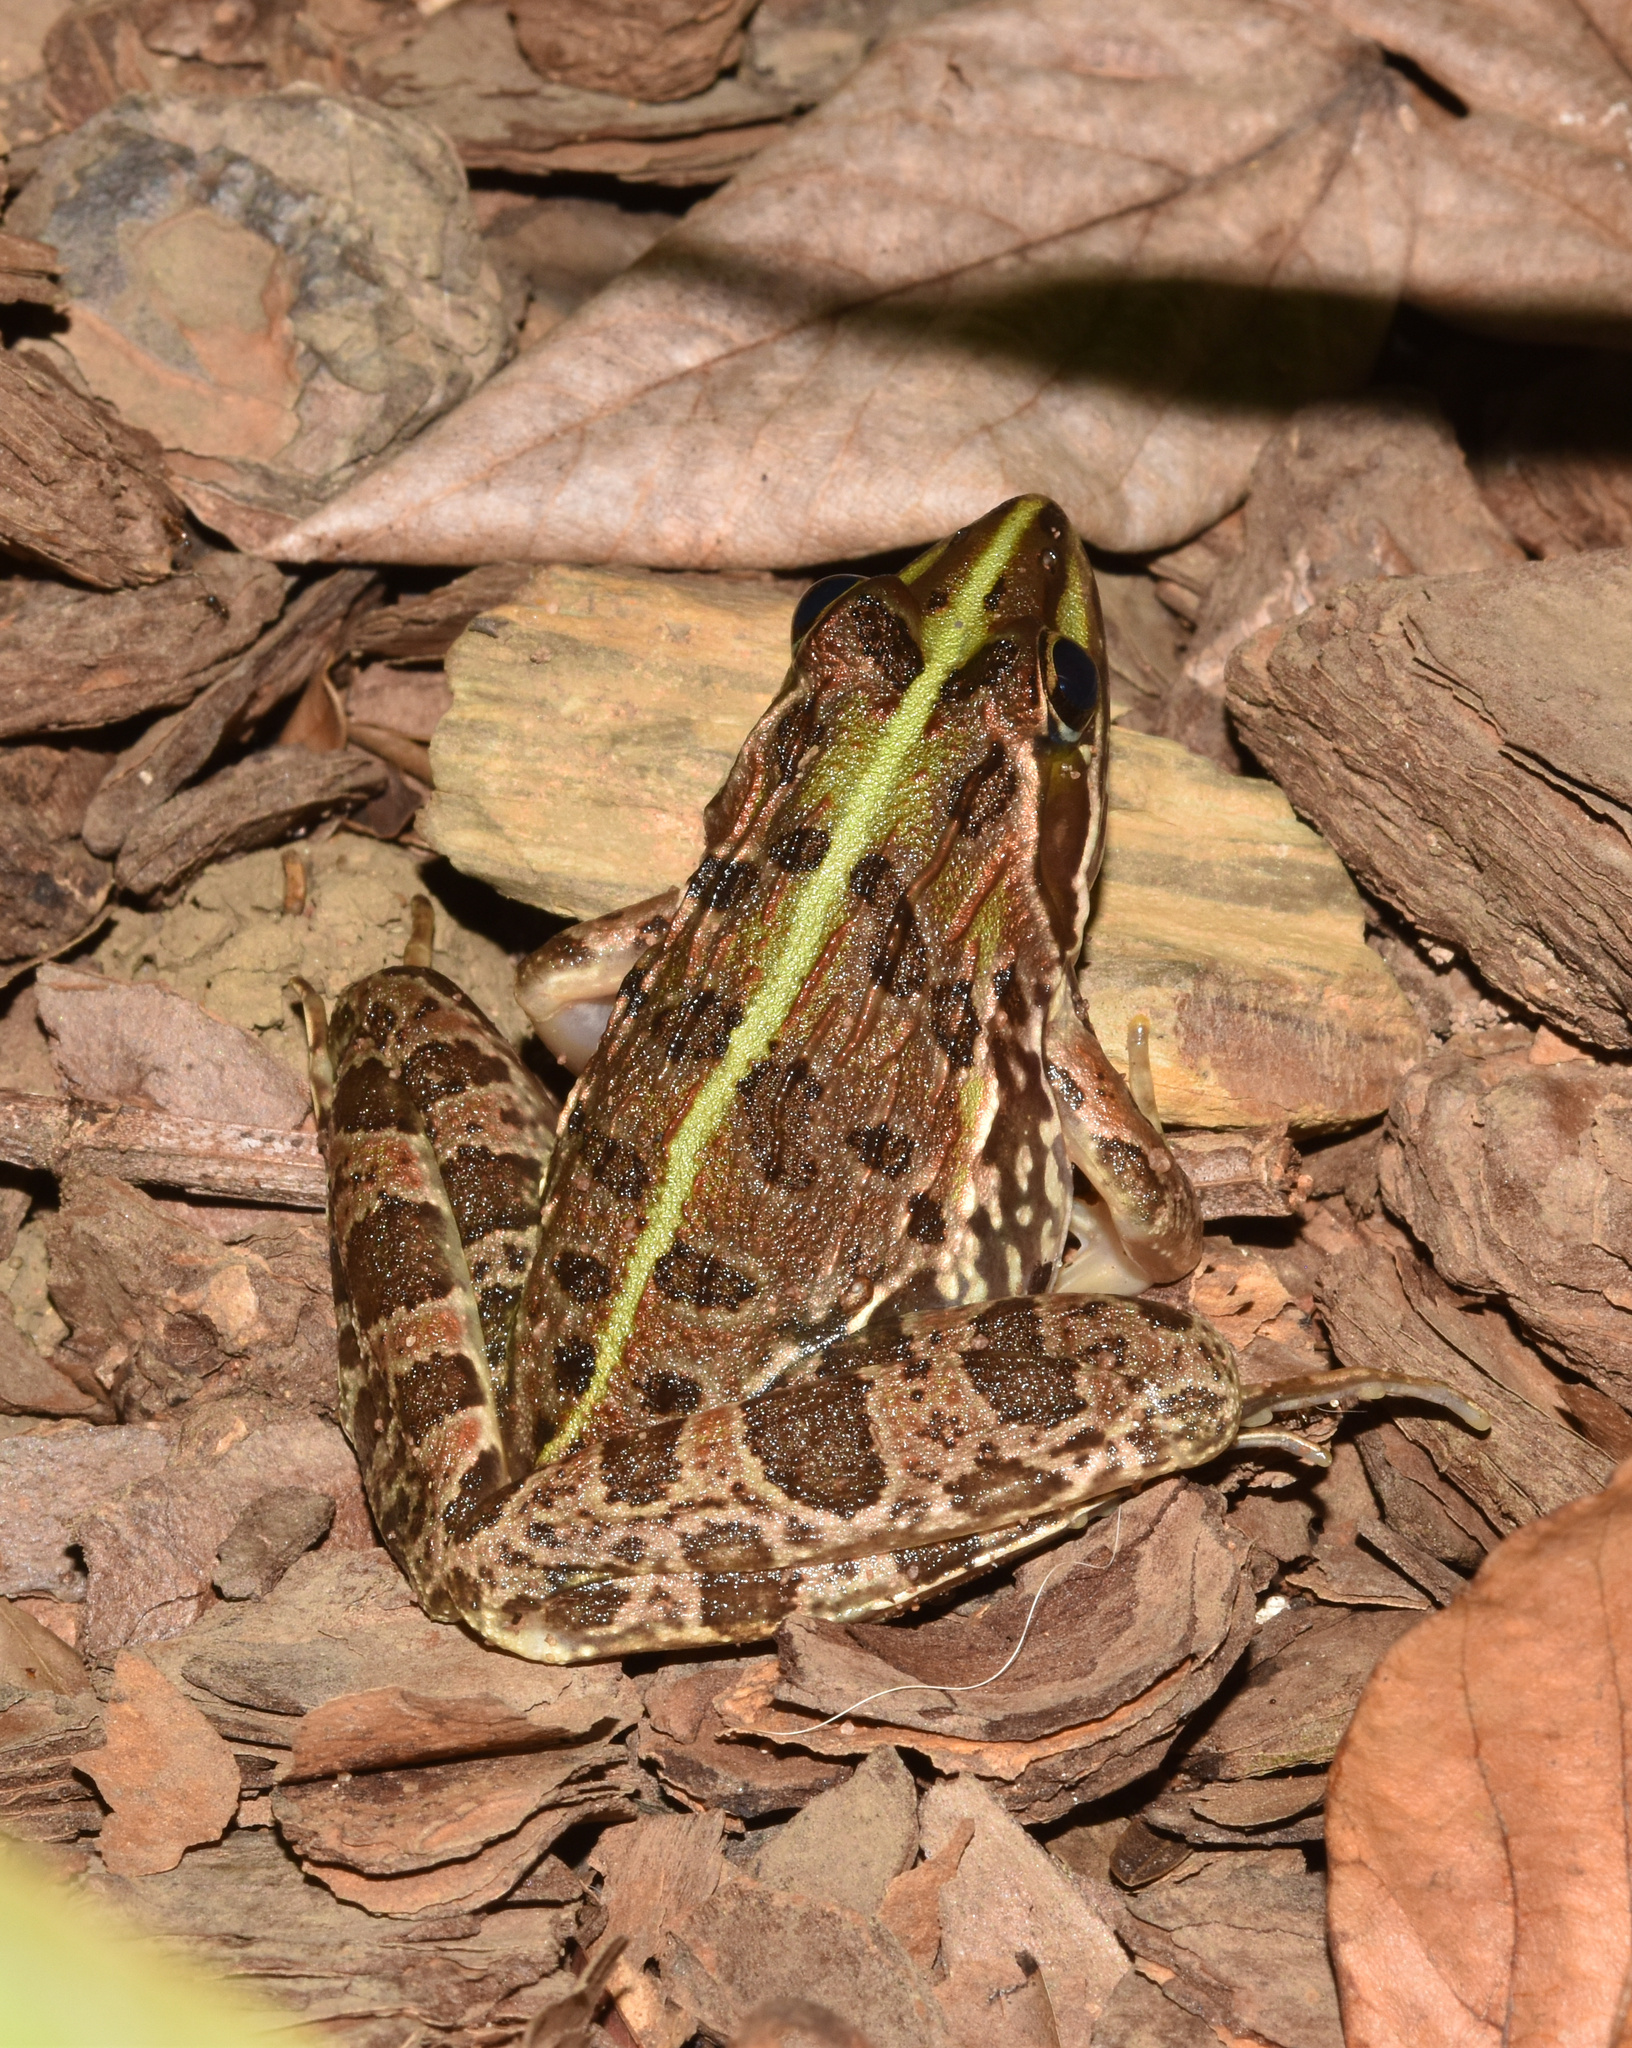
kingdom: Animalia
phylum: Chordata
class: Amphibia
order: Anura
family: Pyxicephalidae
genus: Amietia
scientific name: Amietia delalandii
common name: Delalande's river frog
